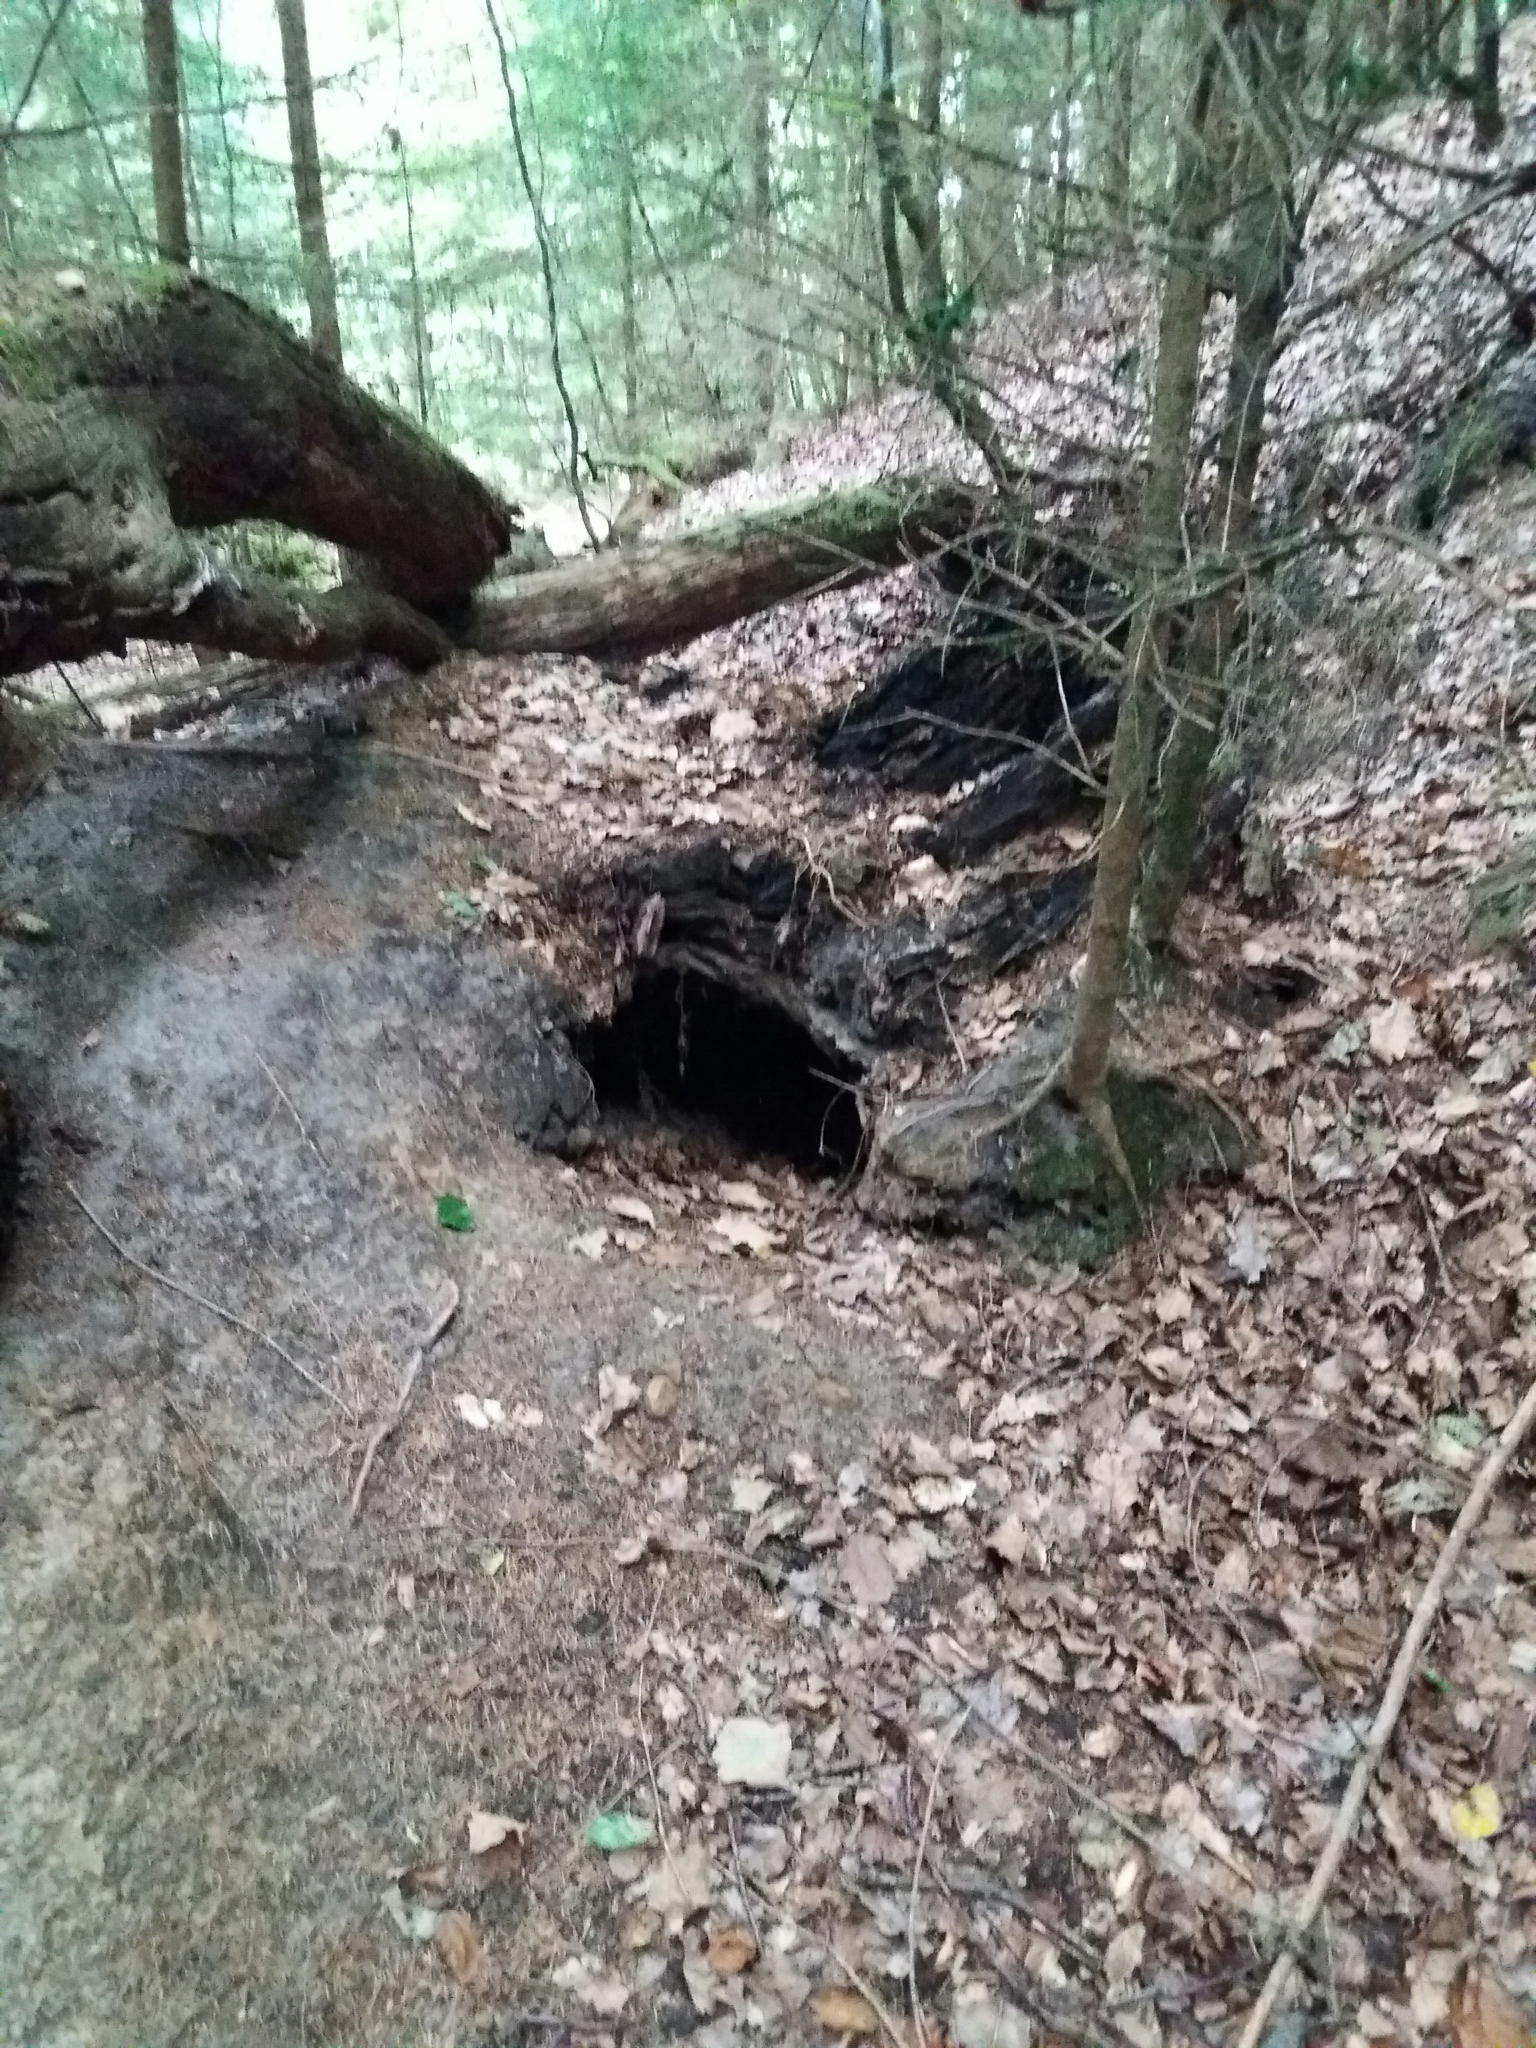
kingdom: Animalia
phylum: Chordata
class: Mammalia
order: Carnivora
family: Mustelidae
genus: Meles
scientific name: Meles meles
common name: Eurasian badger
